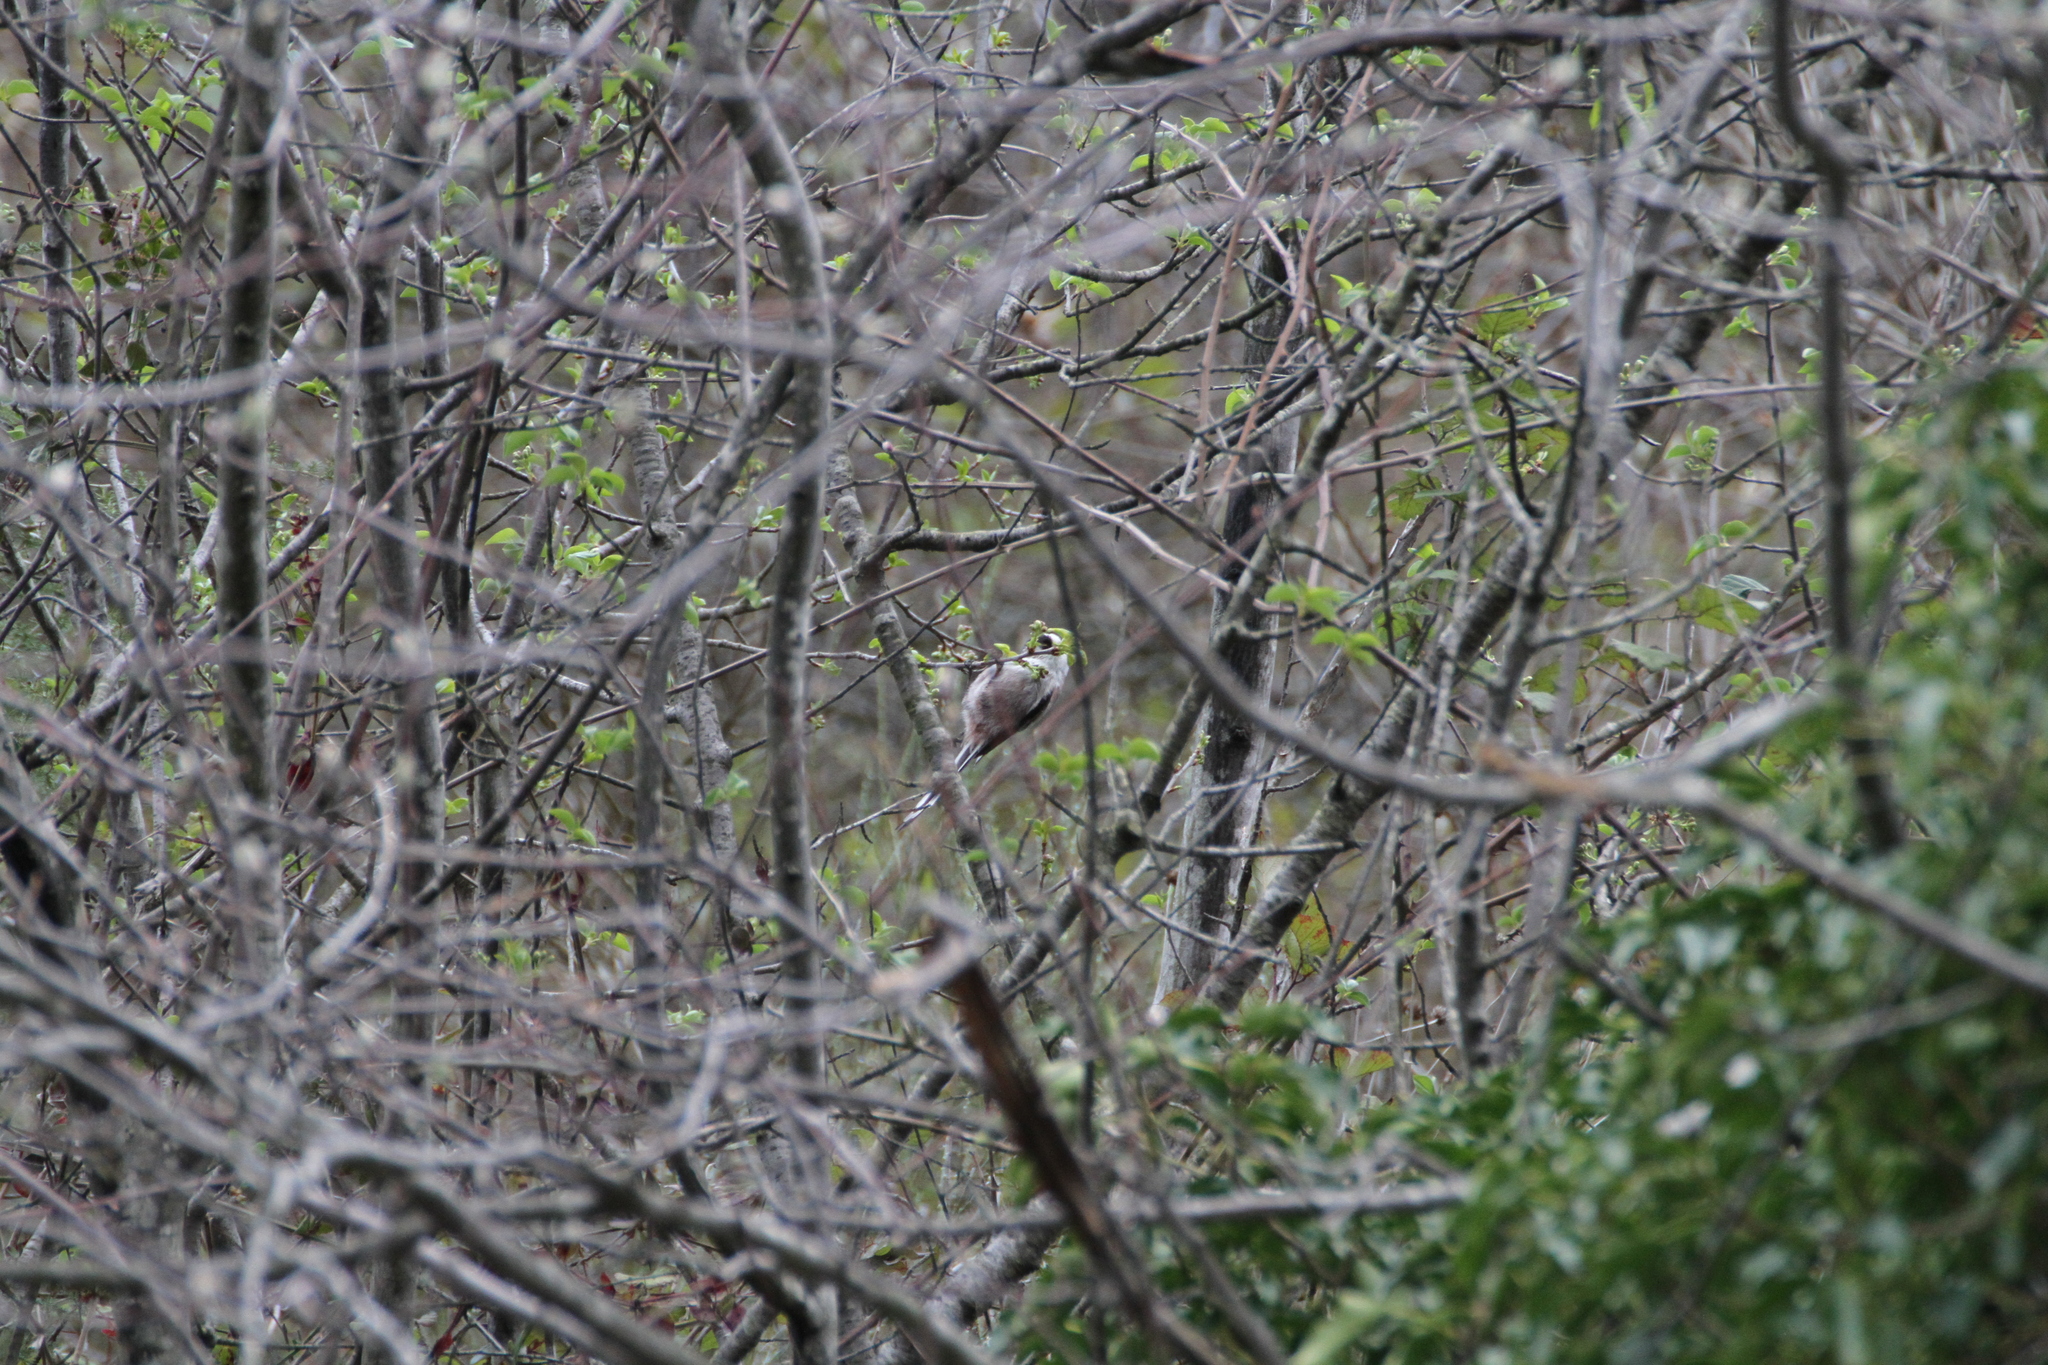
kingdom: Animalia
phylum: Chordata
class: Aves
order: Passeriformes
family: Aegithalidae
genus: Aegithalos
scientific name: Aegithalos caudatus
